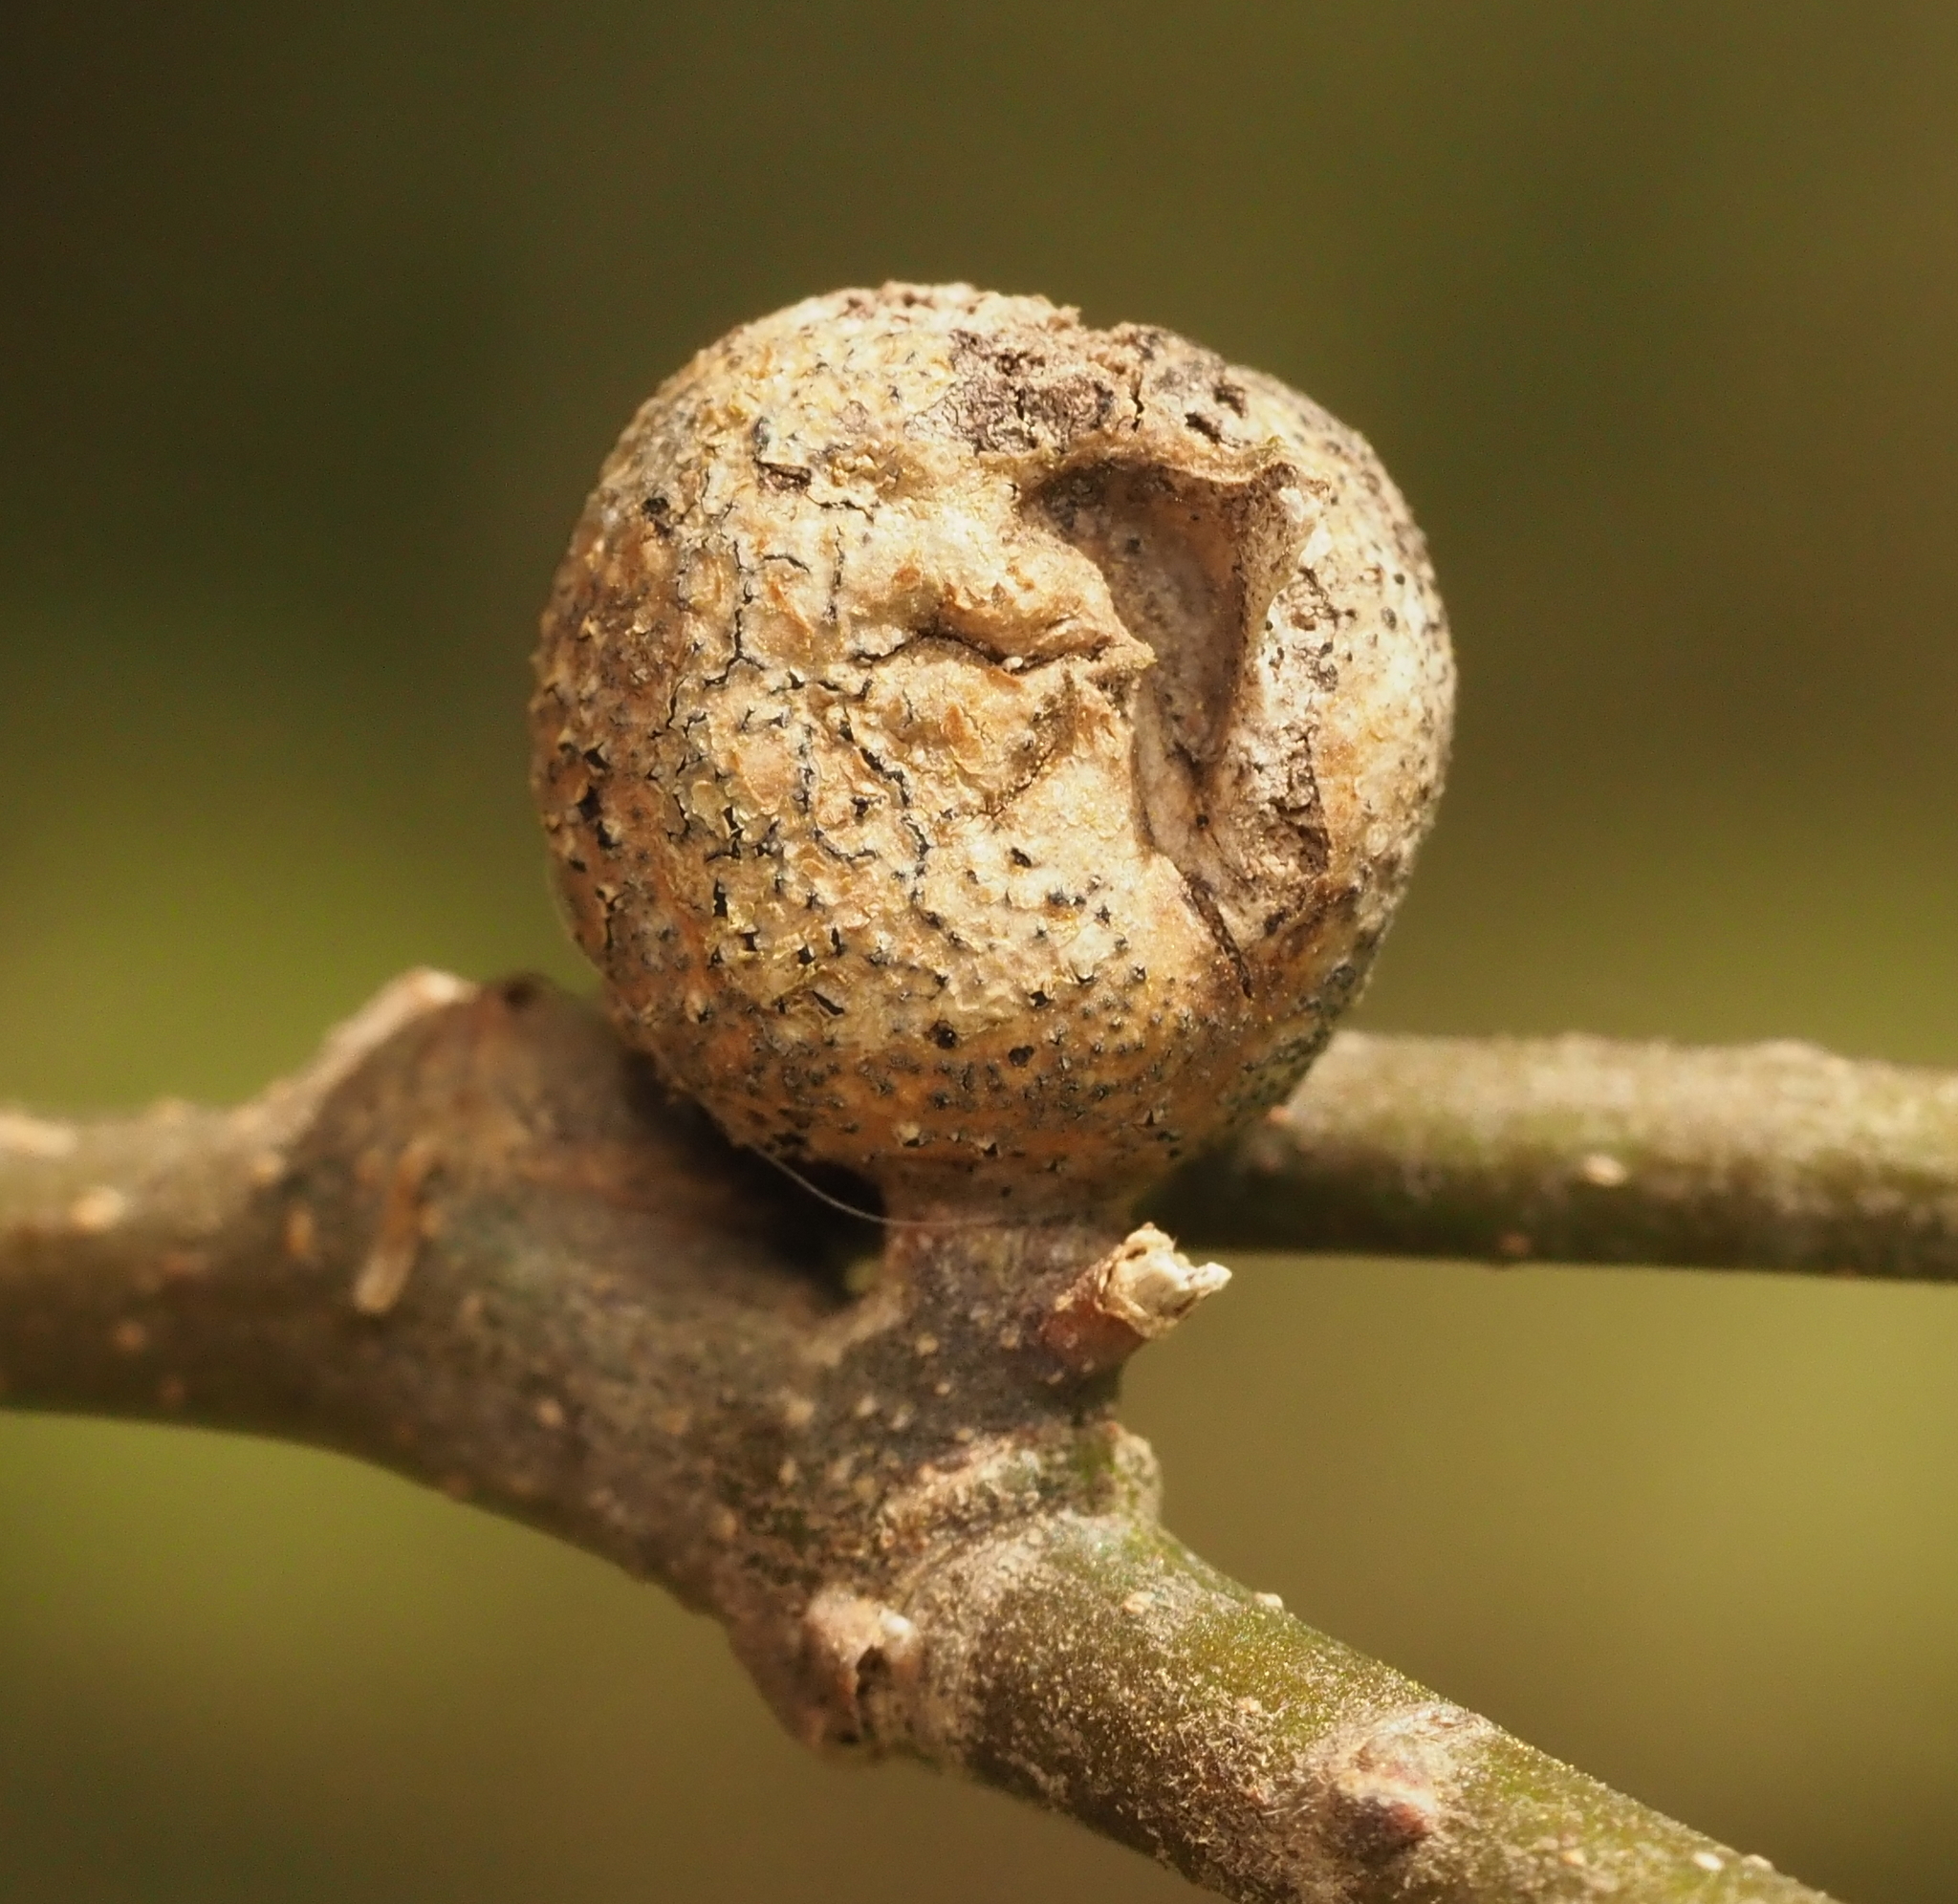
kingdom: Animalia
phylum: Arthropoda
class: Insecta
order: Hemiptera
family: Aphalaridae
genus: Pachypsylla
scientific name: Pachypsylla venusta
